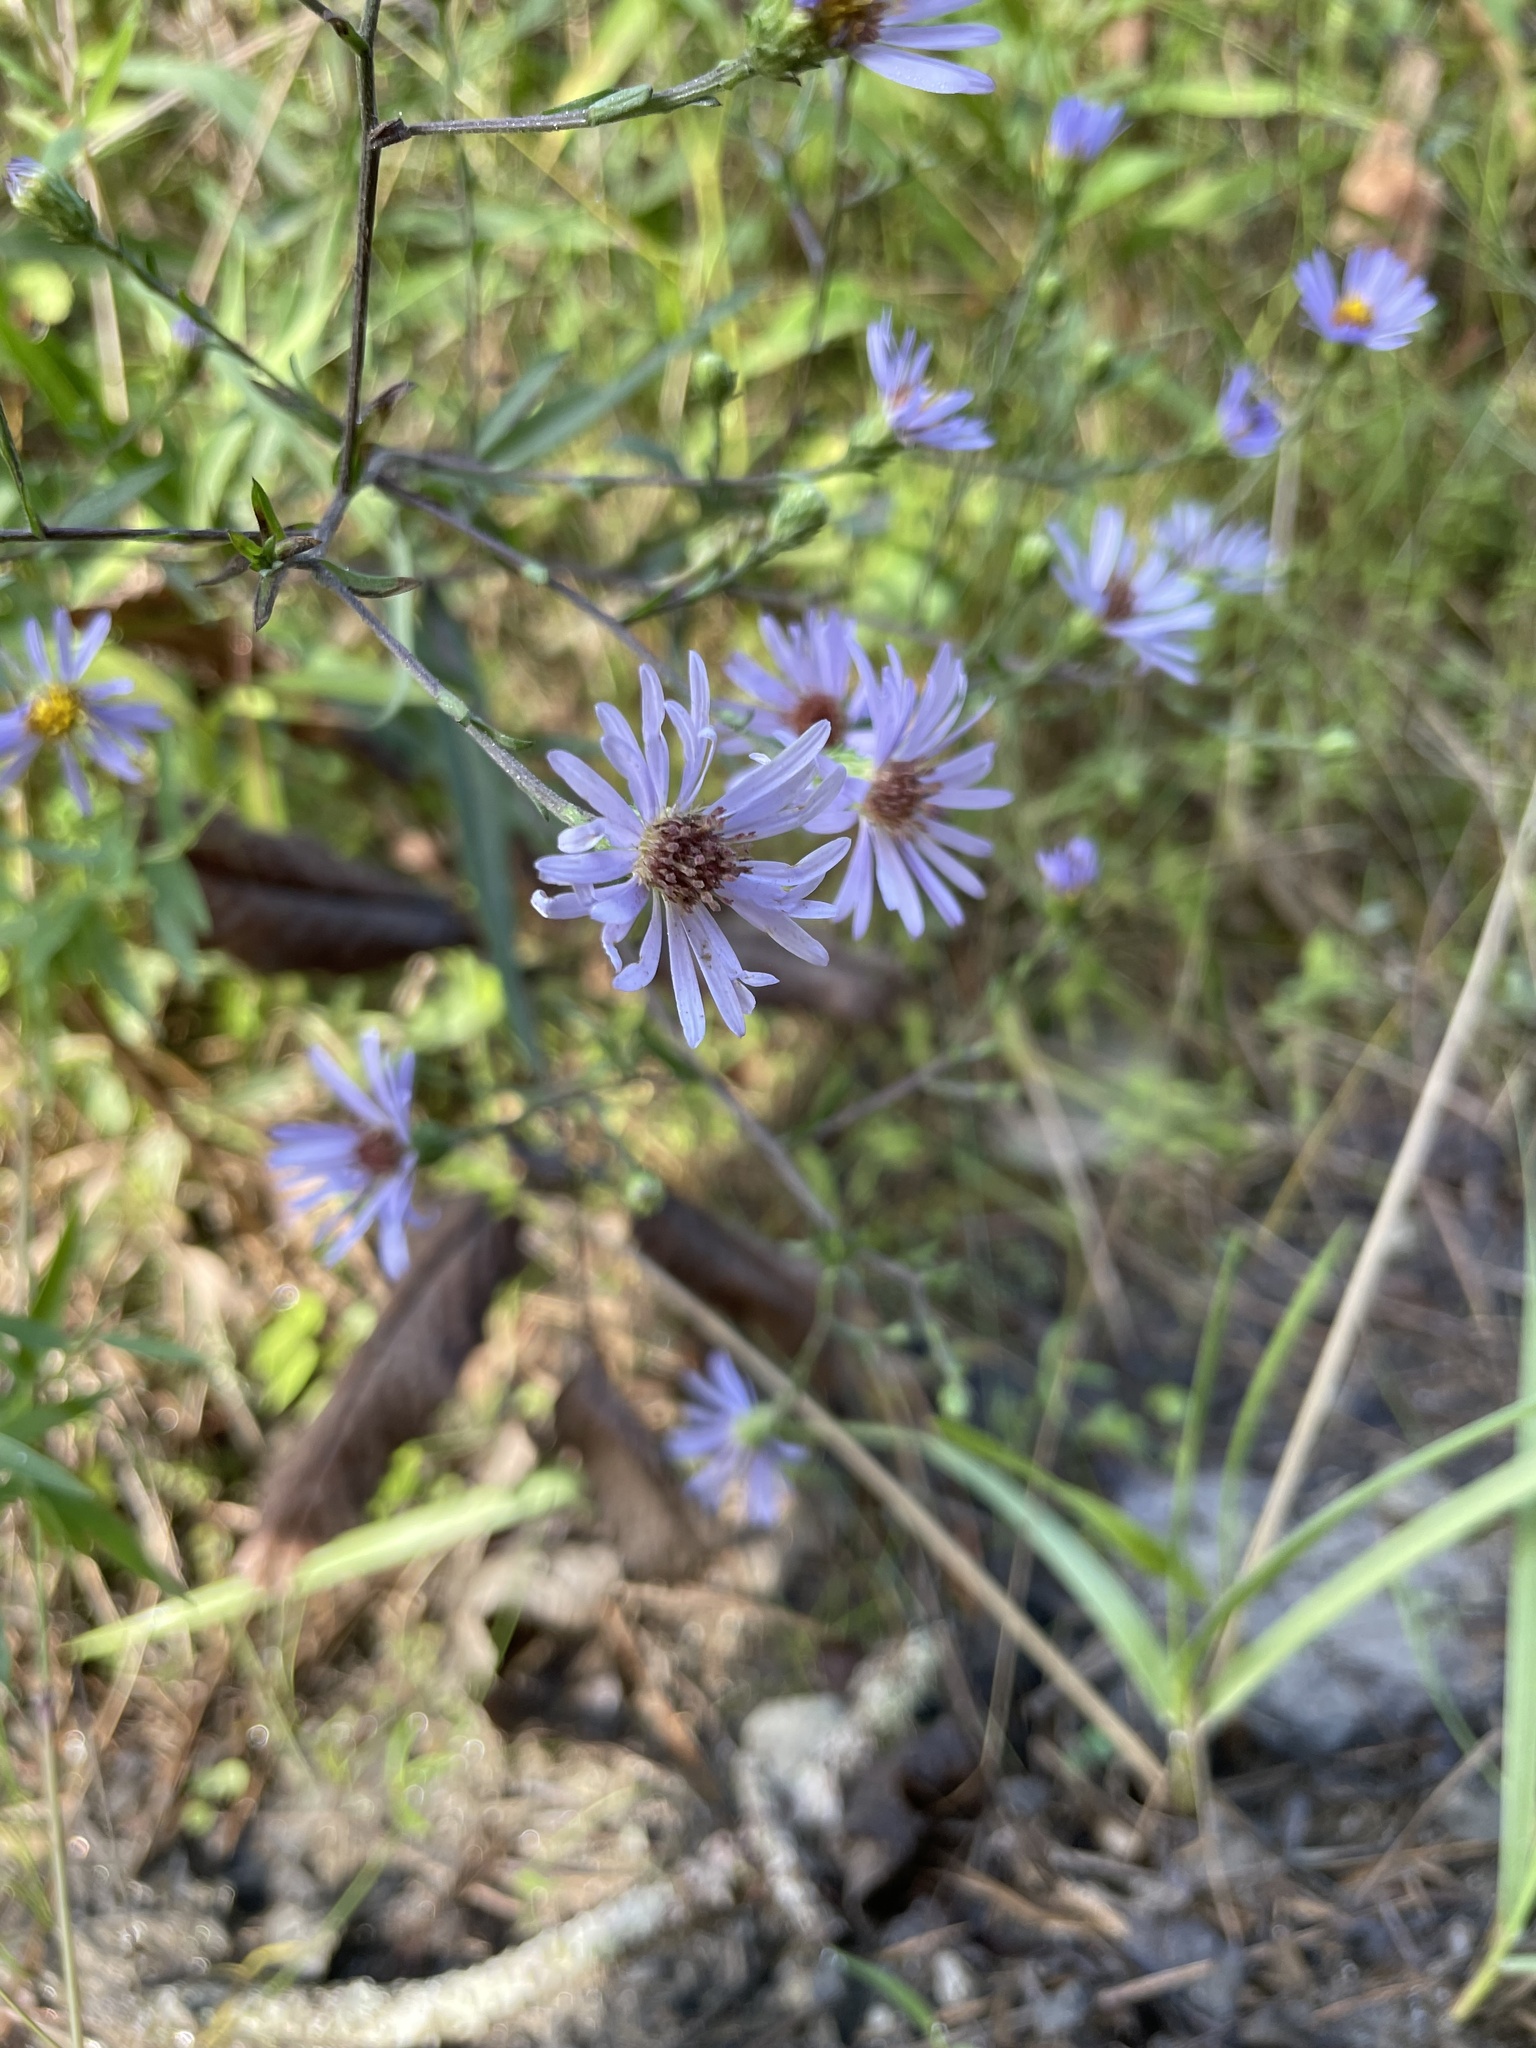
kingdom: Plantae
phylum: Tracheophyta
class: Magnoliopsida
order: Asterales
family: Asteraceae
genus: Symphyotrichum
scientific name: Symphyotrichum rhiannon
